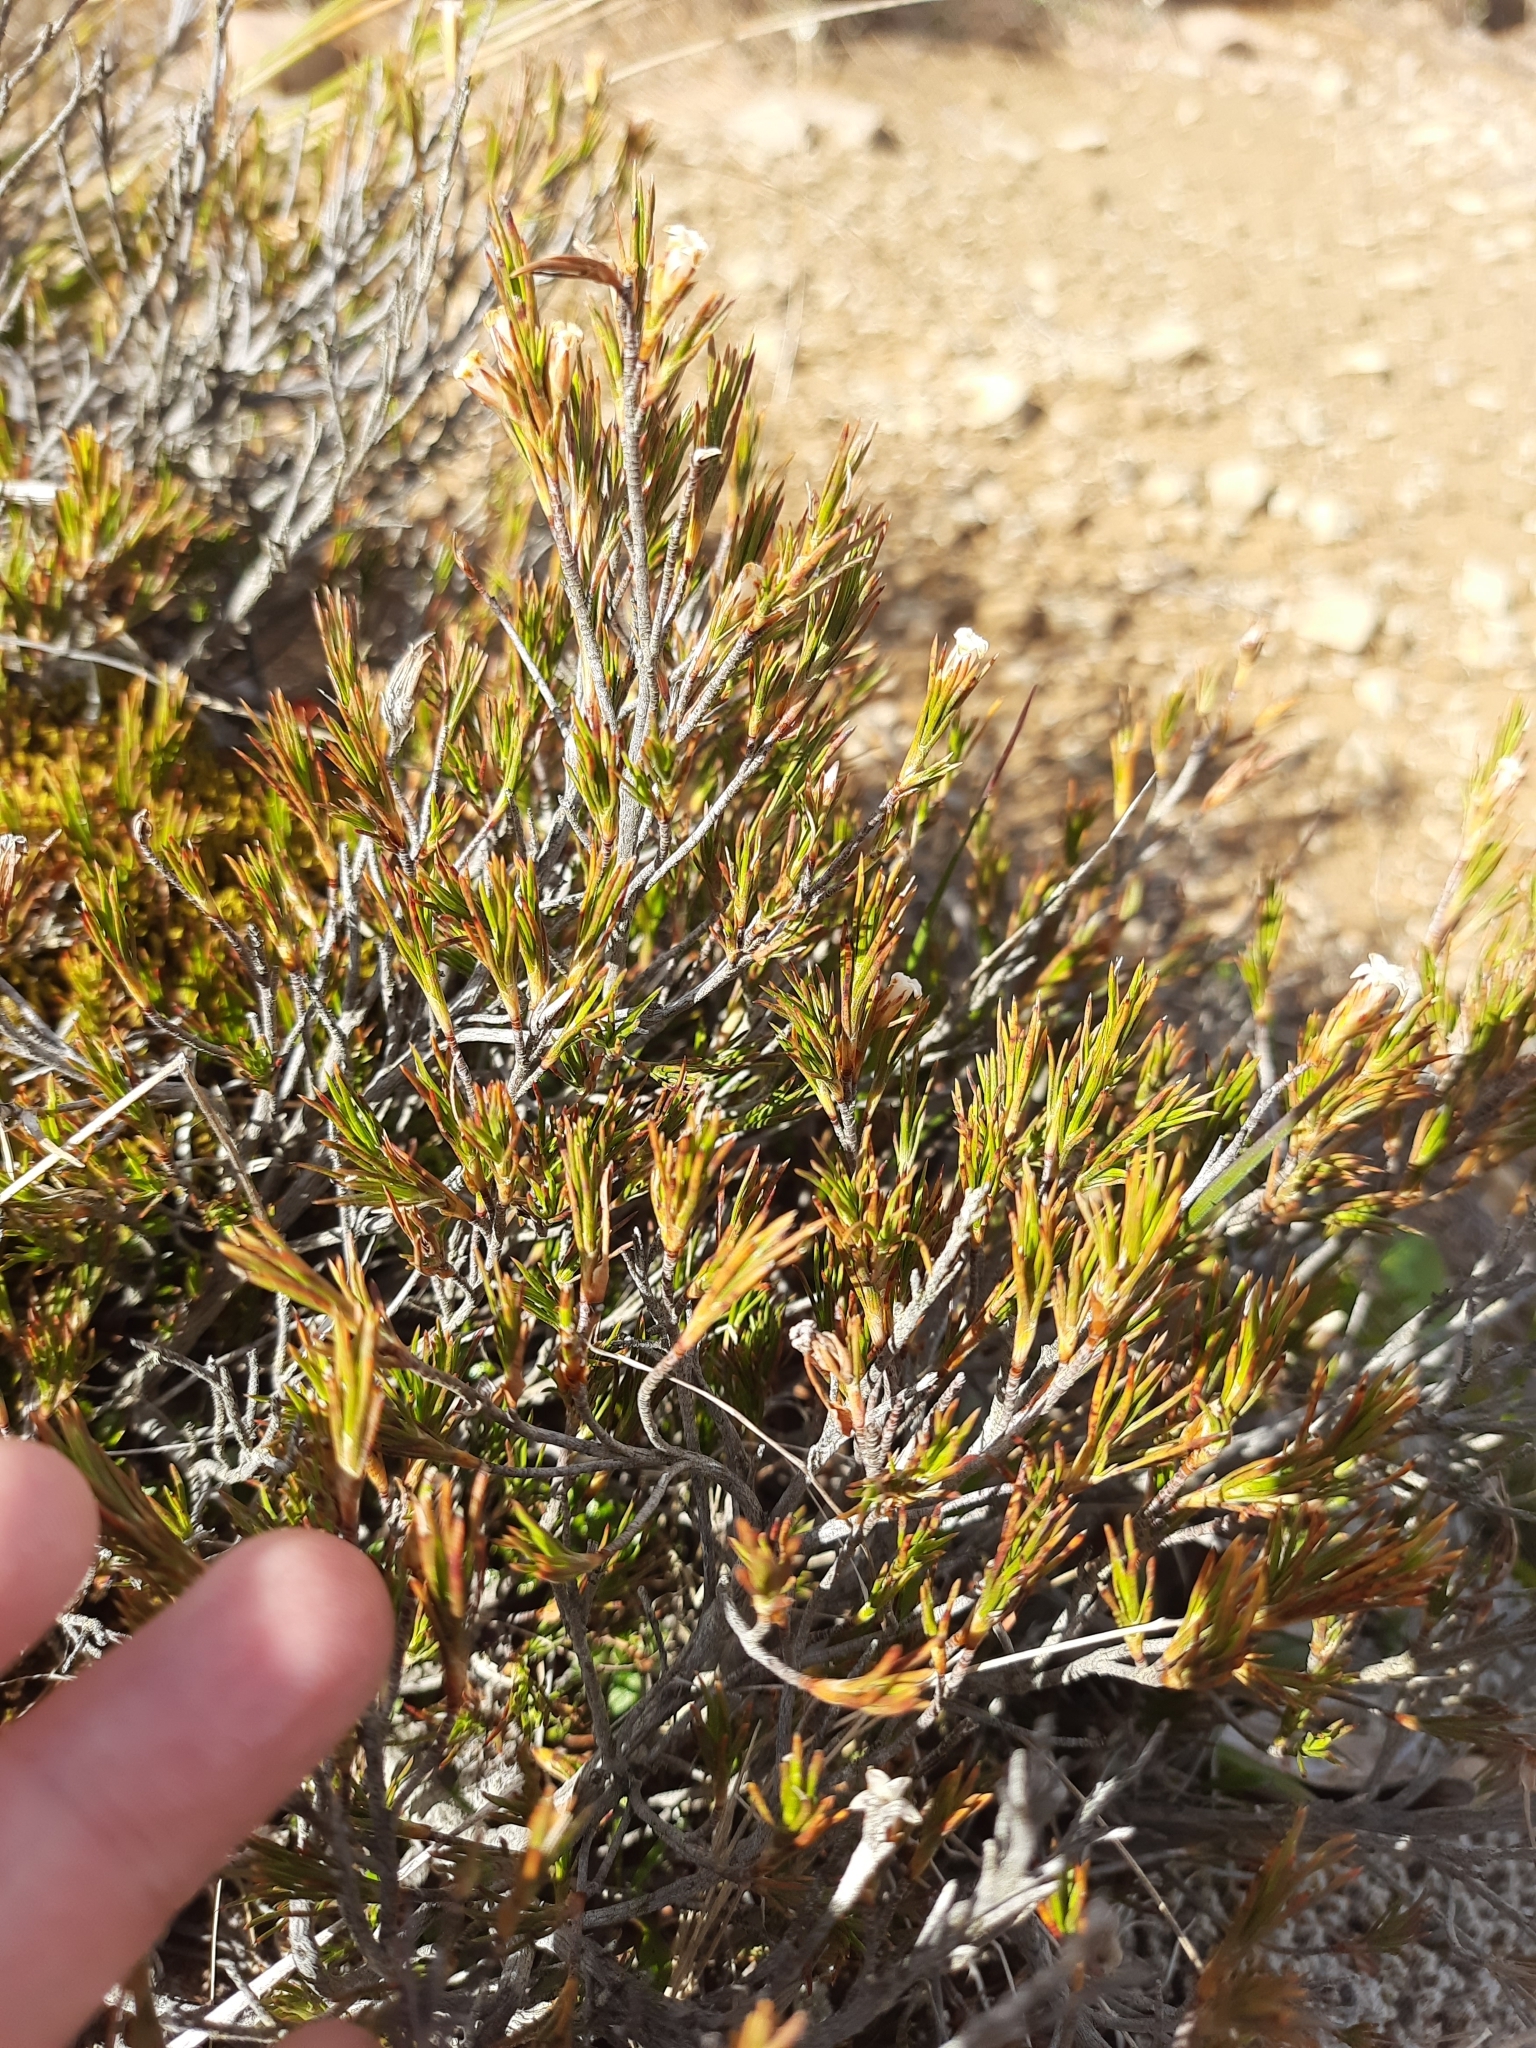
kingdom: Plantae
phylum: Tracheophyta
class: Magnoliopsida
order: Ericales
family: Ericaceae
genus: Dracophyllum
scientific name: Dracophyllum rosmarinifolium
